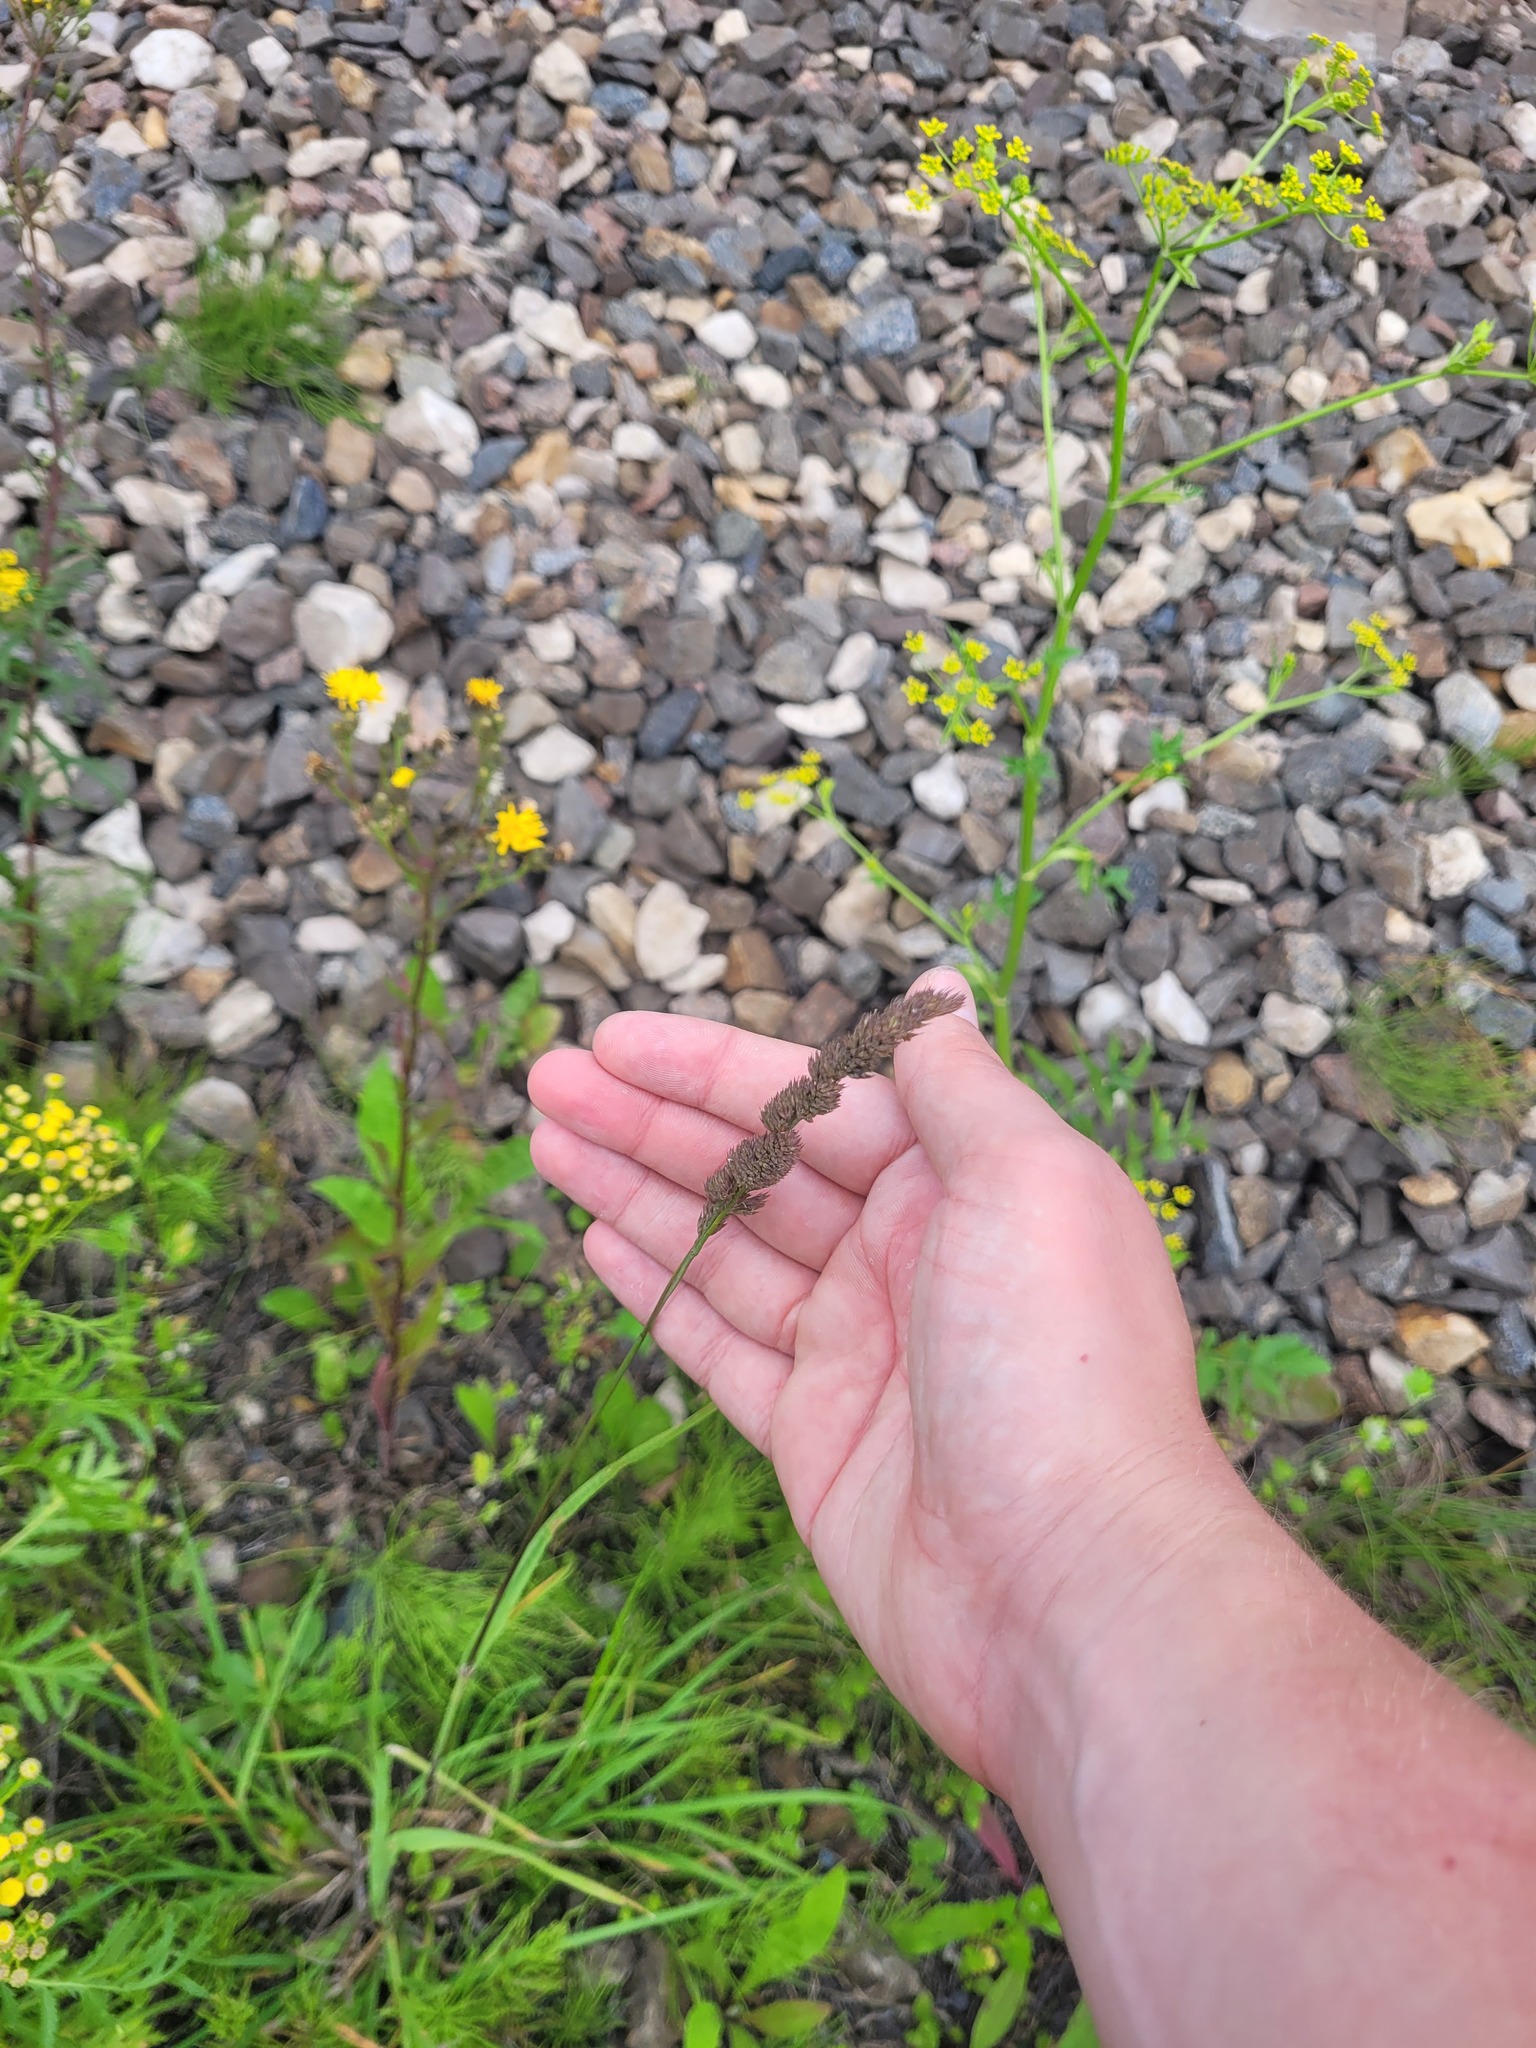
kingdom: Plantae
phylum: Tracheophyta
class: Liliopsida
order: Poales
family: Poaceae
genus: Dactylis
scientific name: Dactylis glomerata
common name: Orchardgrass
